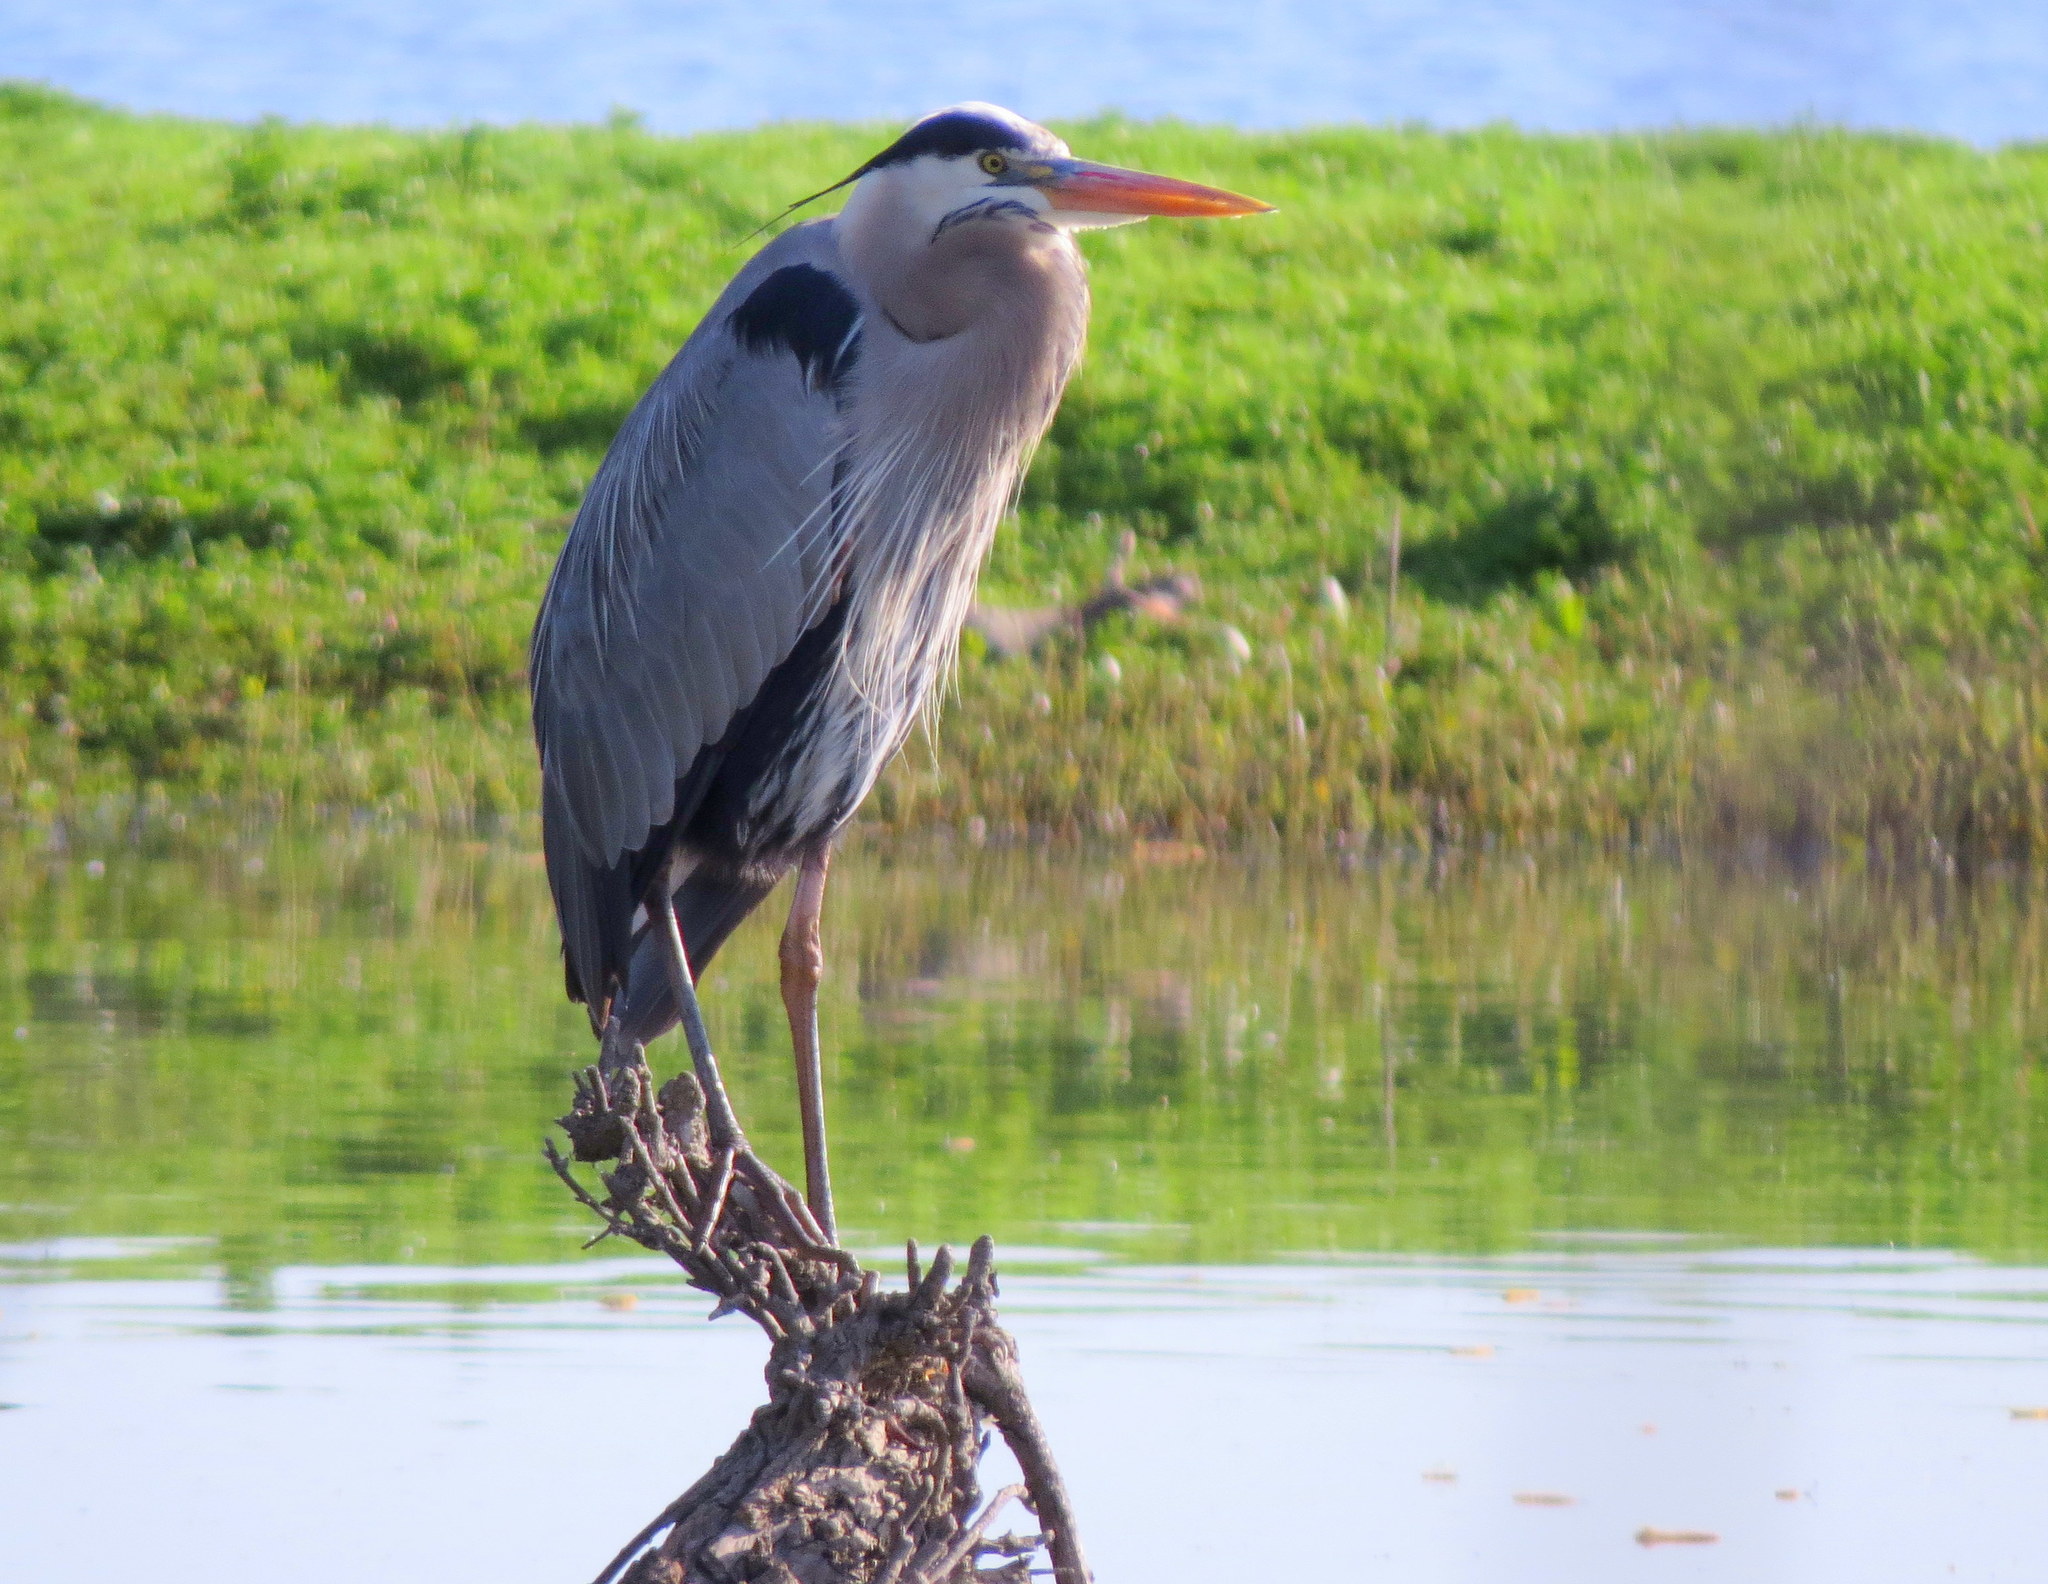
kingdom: Animalia
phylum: Chordata
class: Aves
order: Pelecaniformes
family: Ardeidae
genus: Ardea
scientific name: Ardea herodias
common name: Great blue heron
